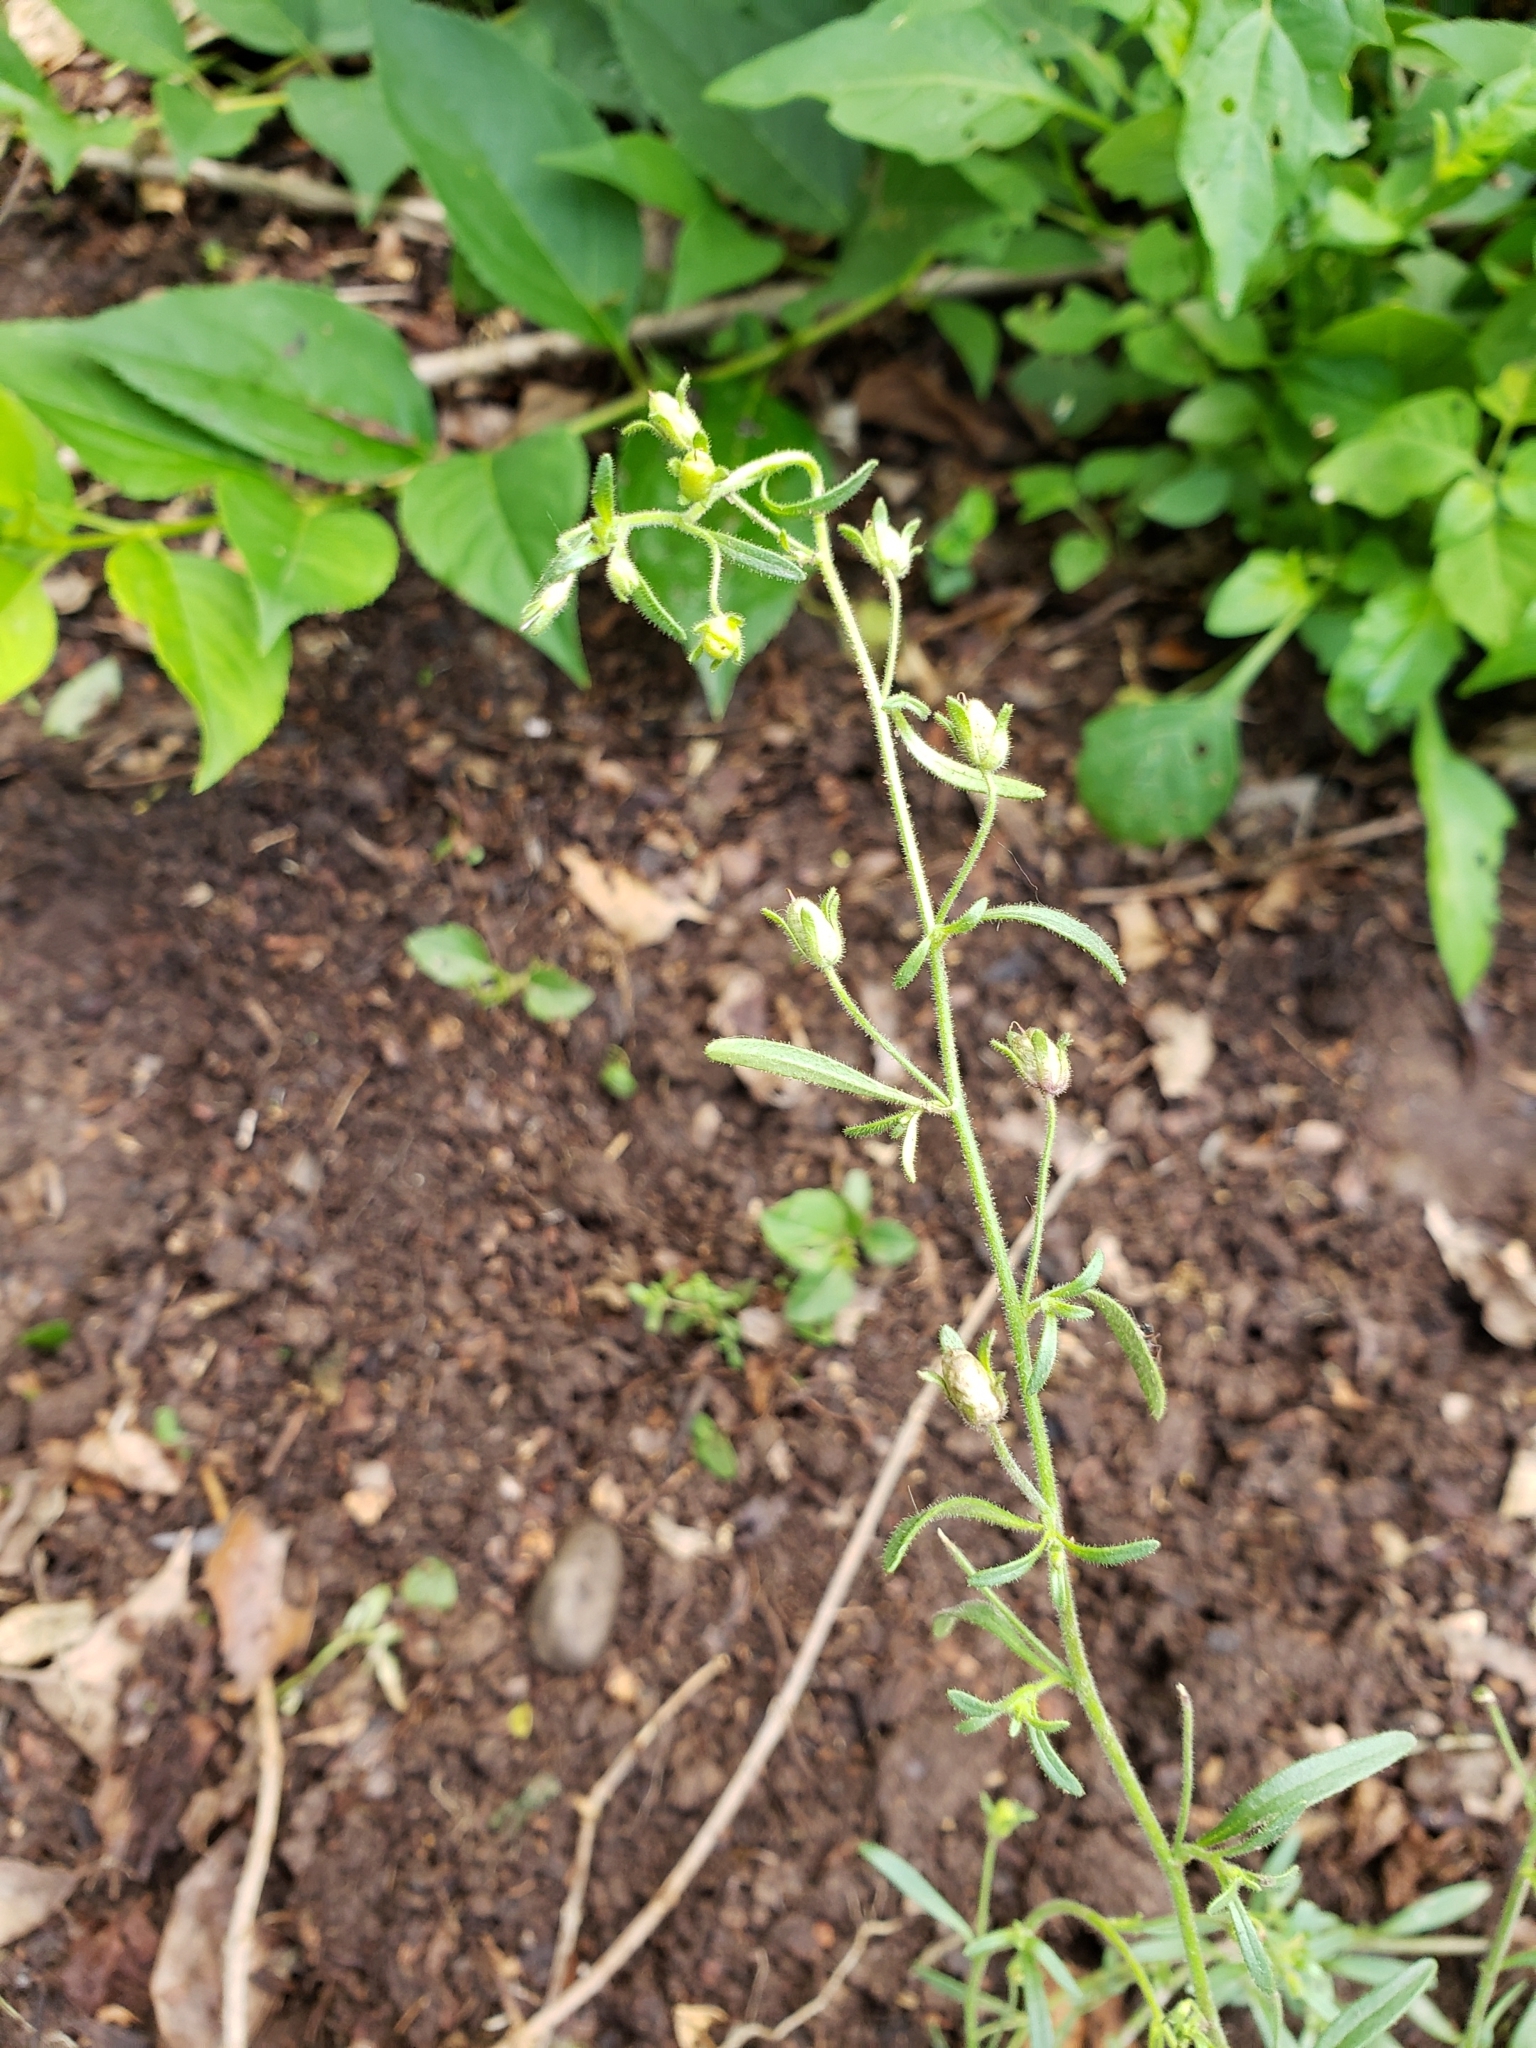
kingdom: Plantae
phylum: Tracheophyta
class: Magnoliopsida
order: Lamiales
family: Plantaginaceae
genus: Chaenorhinum
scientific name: Chaenorhinum minus
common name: Dwarf snapdragon
